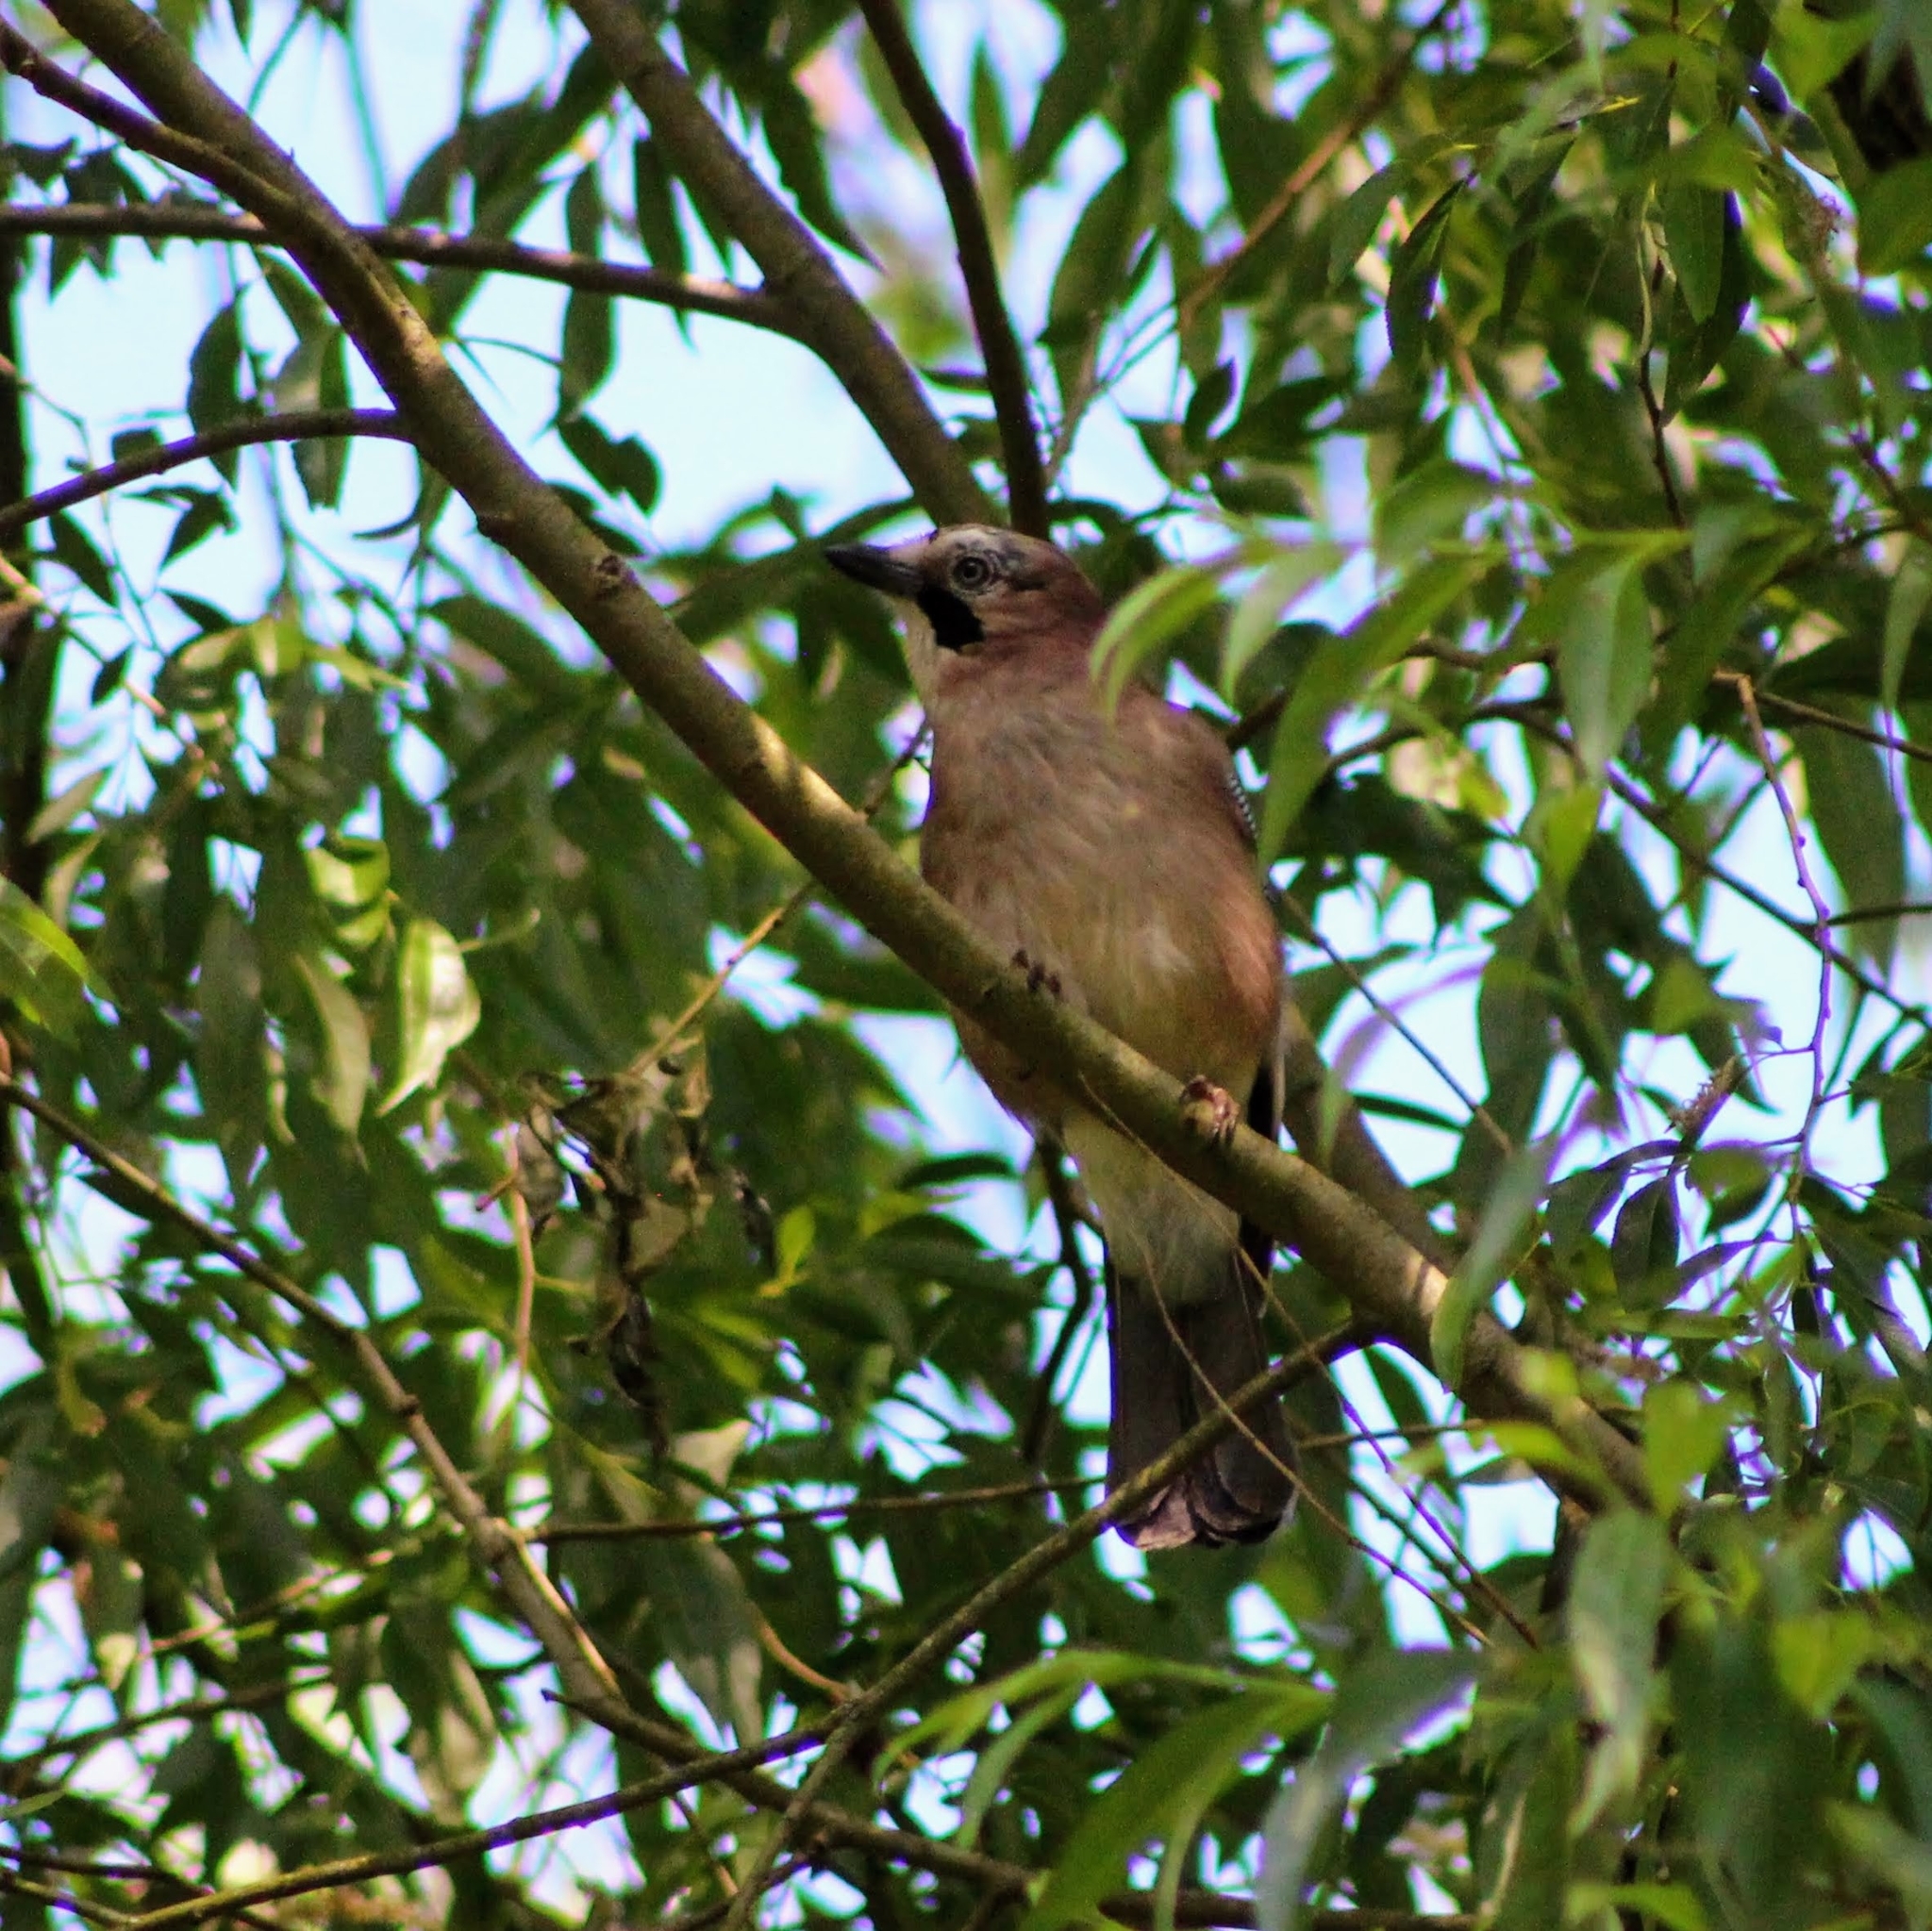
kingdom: Animalia
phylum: Chordata
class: Aves
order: Passeriformes
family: Corvidae
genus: Garrulus
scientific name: Garrulus glandarius
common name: Eurasian jay
